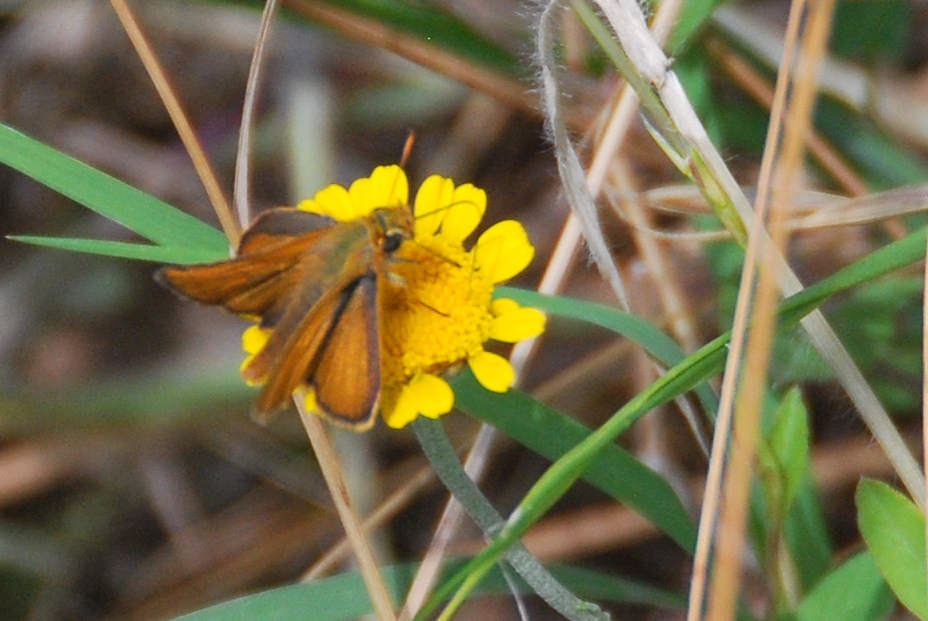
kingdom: Animalia
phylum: Arthropoda
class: Insecta
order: Lepidoptera
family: Hesperiidae
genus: Thymelicus
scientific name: Thymelicus acteon
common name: Lulworth skipper
